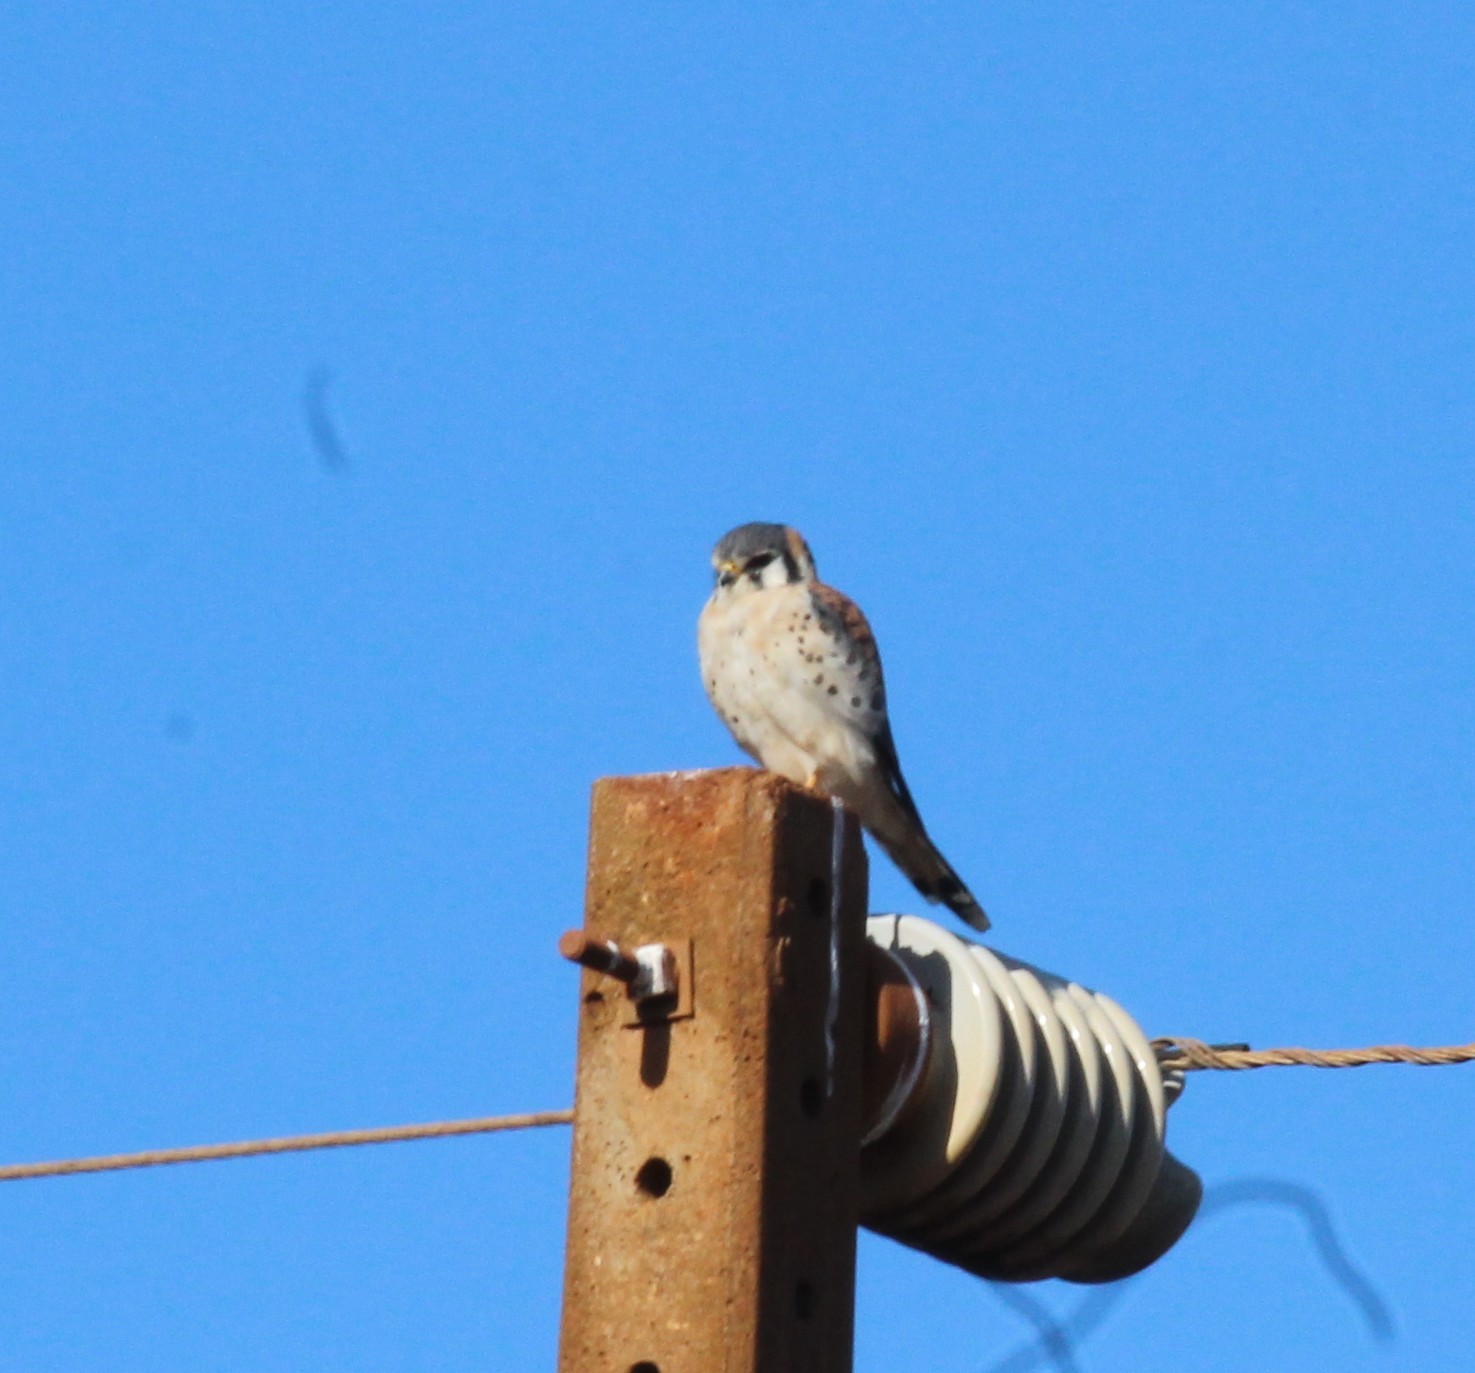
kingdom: Animalia
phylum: Chordata
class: Aves
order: Falconiformes
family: Falconidae
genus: Falco
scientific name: Falco sparverius
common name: American kestrel
